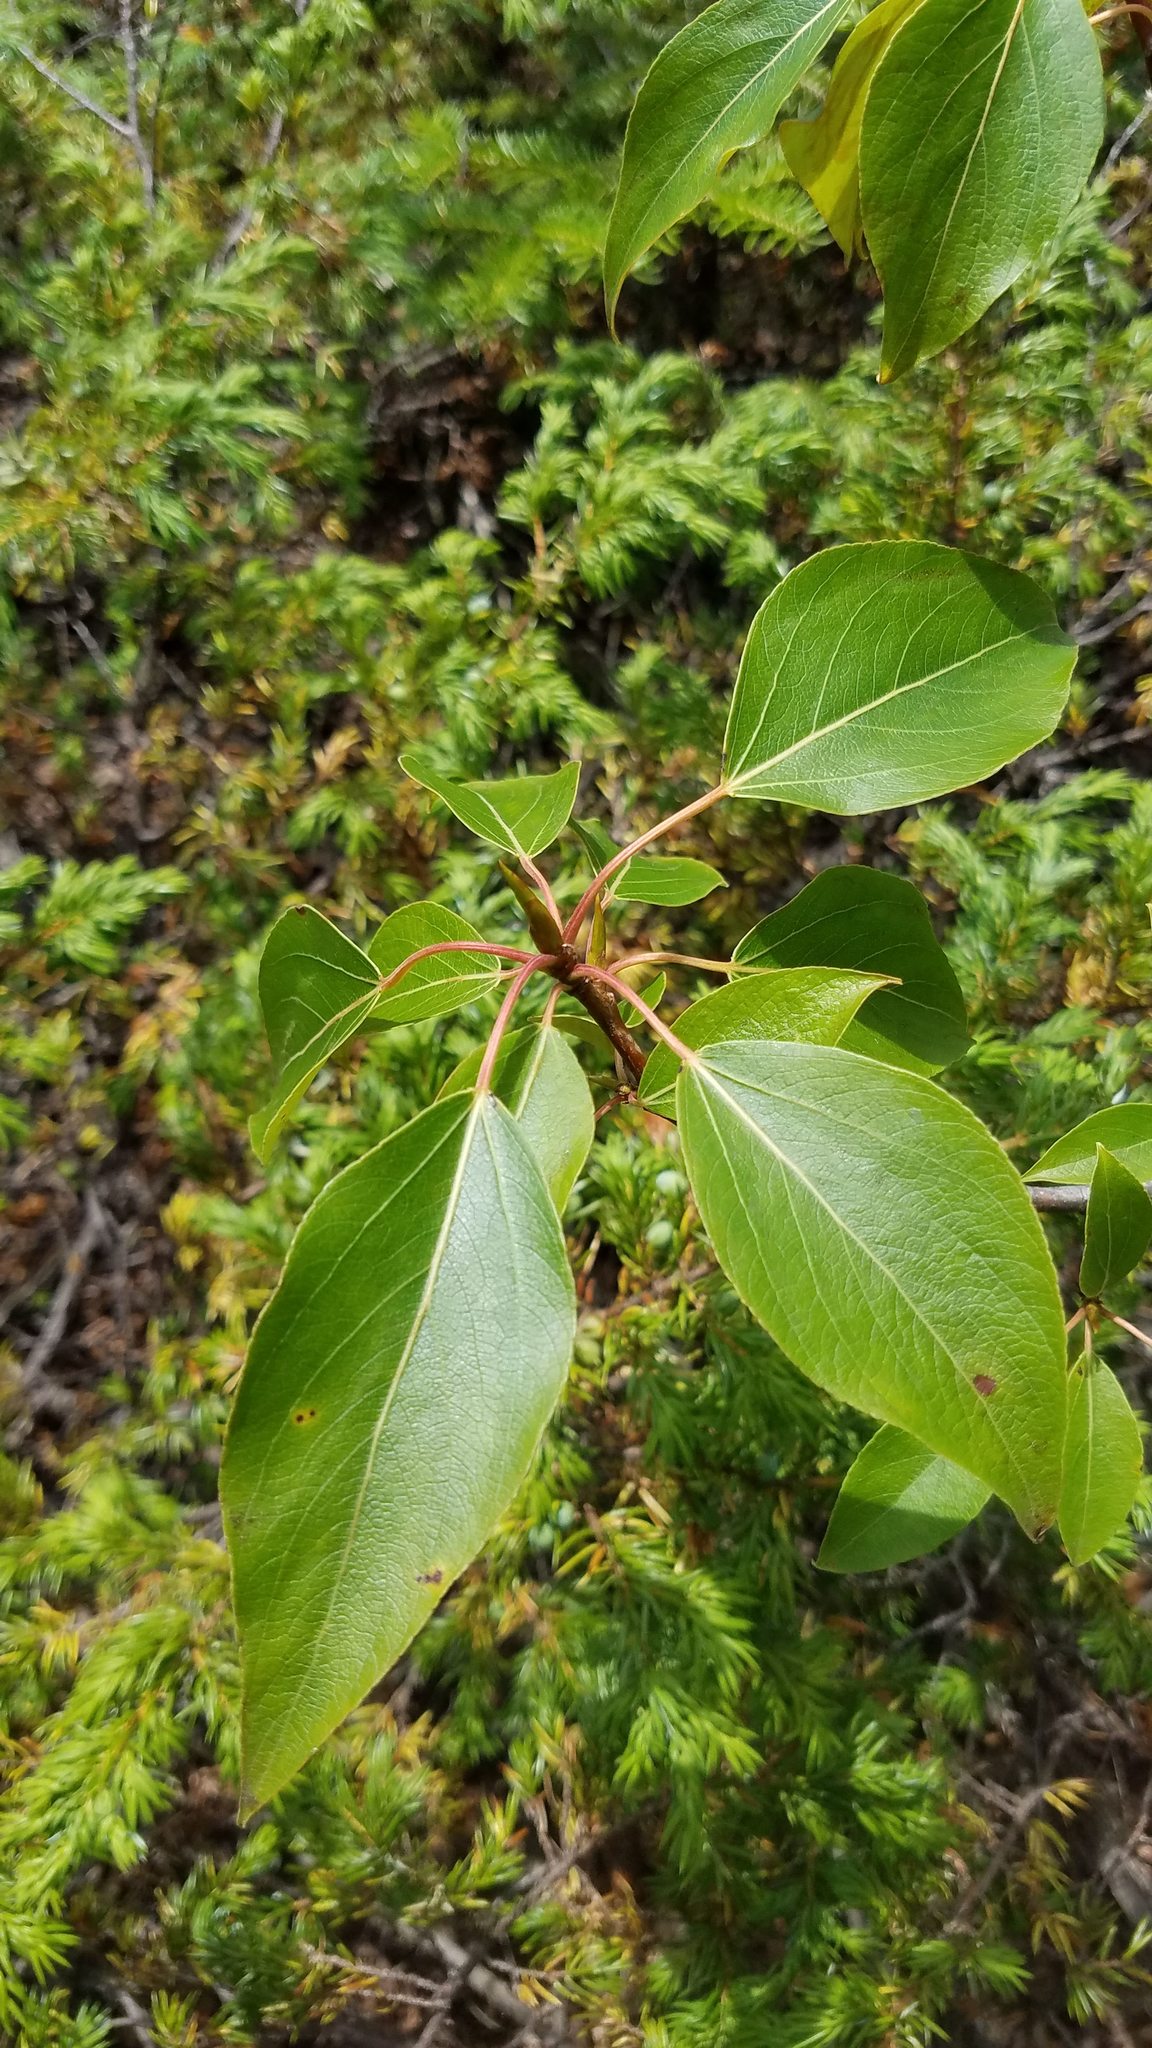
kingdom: Plantae
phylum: Tracheophyta
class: Magnoliopsida
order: Malpighiales
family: Salicaceae
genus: Populus
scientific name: Populus balsamifera
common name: Balsam poplar
